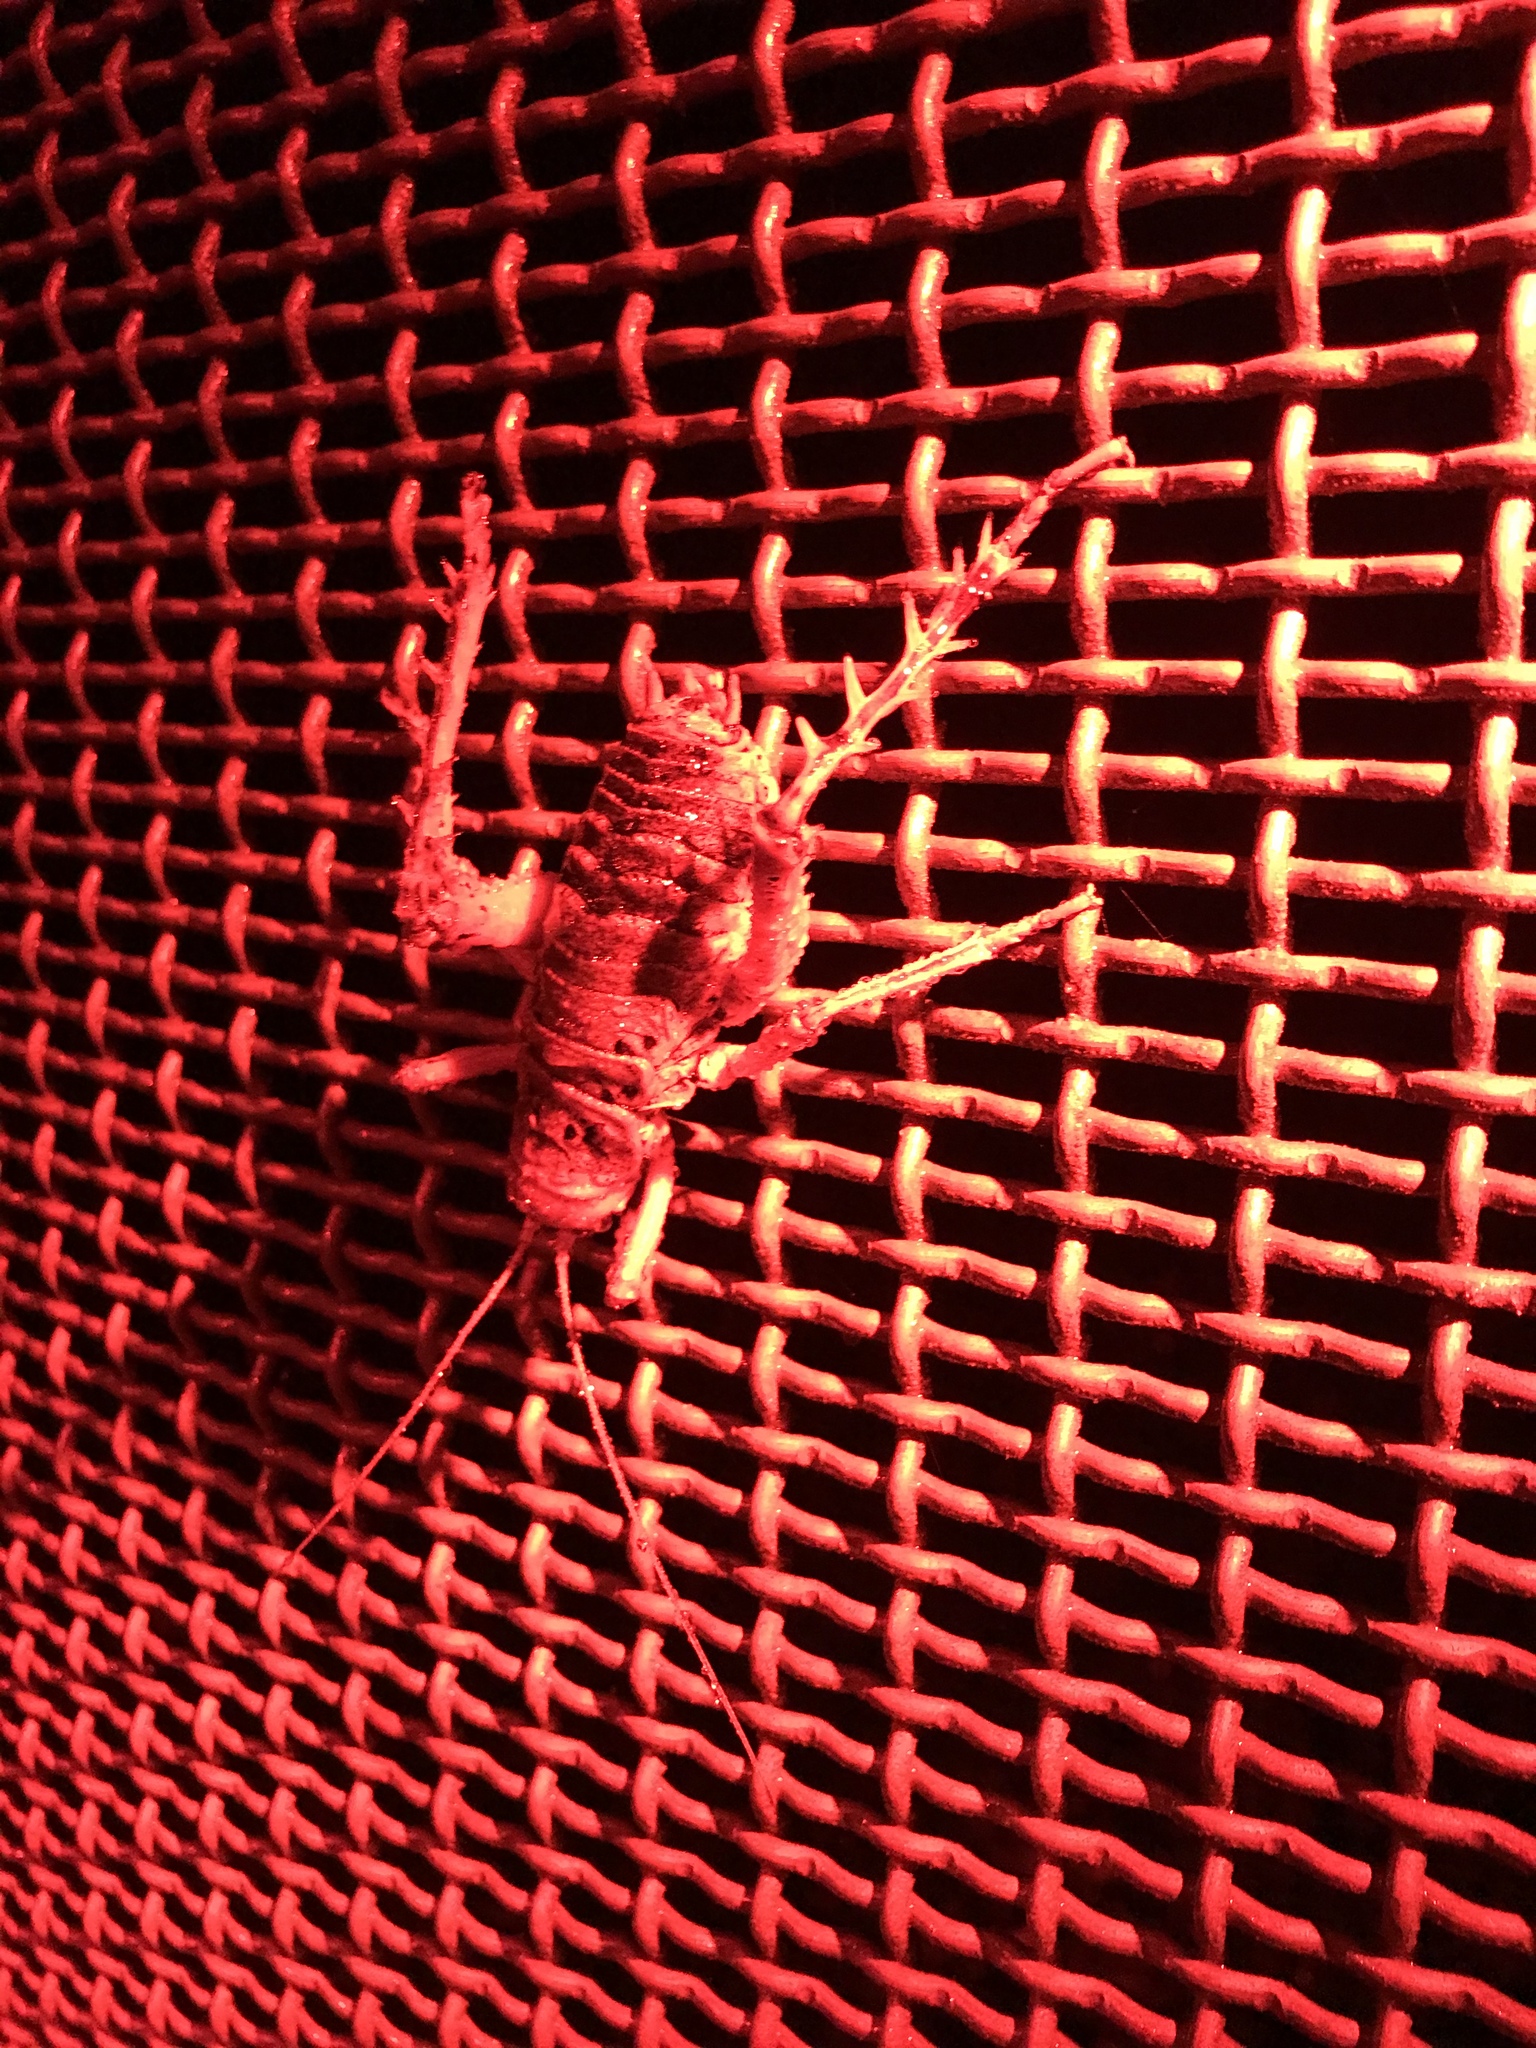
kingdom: Animalia
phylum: Arthropoda
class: Insecta
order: Orthoptera
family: Anostostomatidae
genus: Deinacrida
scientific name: Deinacrida rugosa
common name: Stephens island weta
